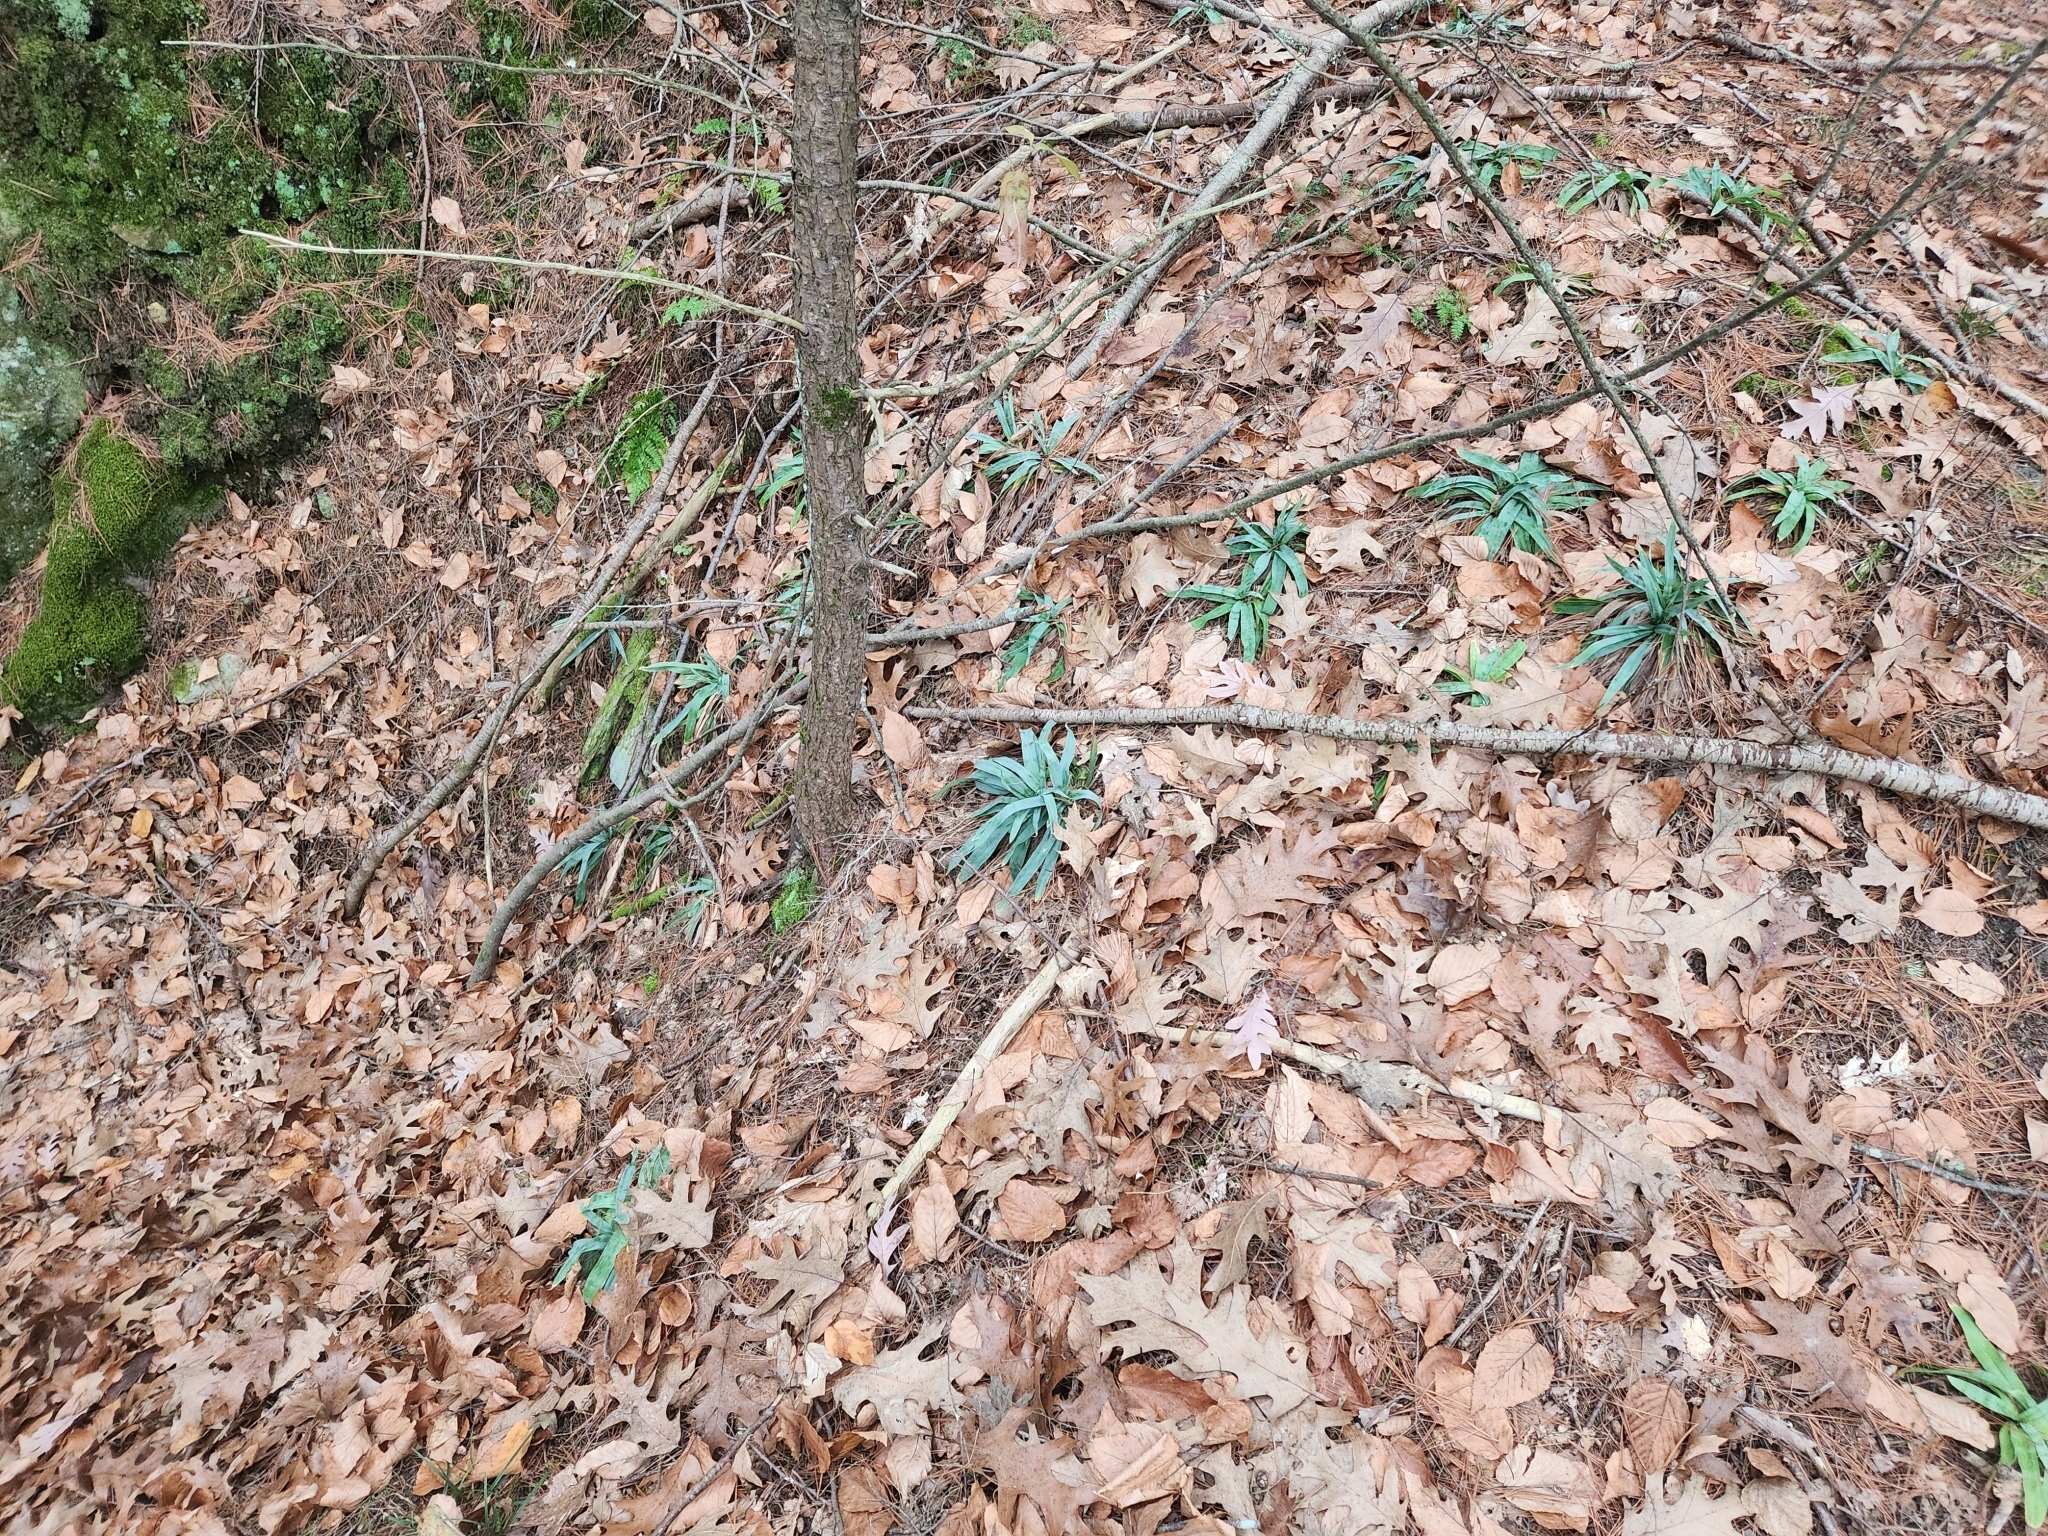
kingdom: Plantae
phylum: Tracheophyta
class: Liliopsida
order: Poales
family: Cyperaceae
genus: Carex
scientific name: Carex platyphylla
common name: Broad-leaved sedge
